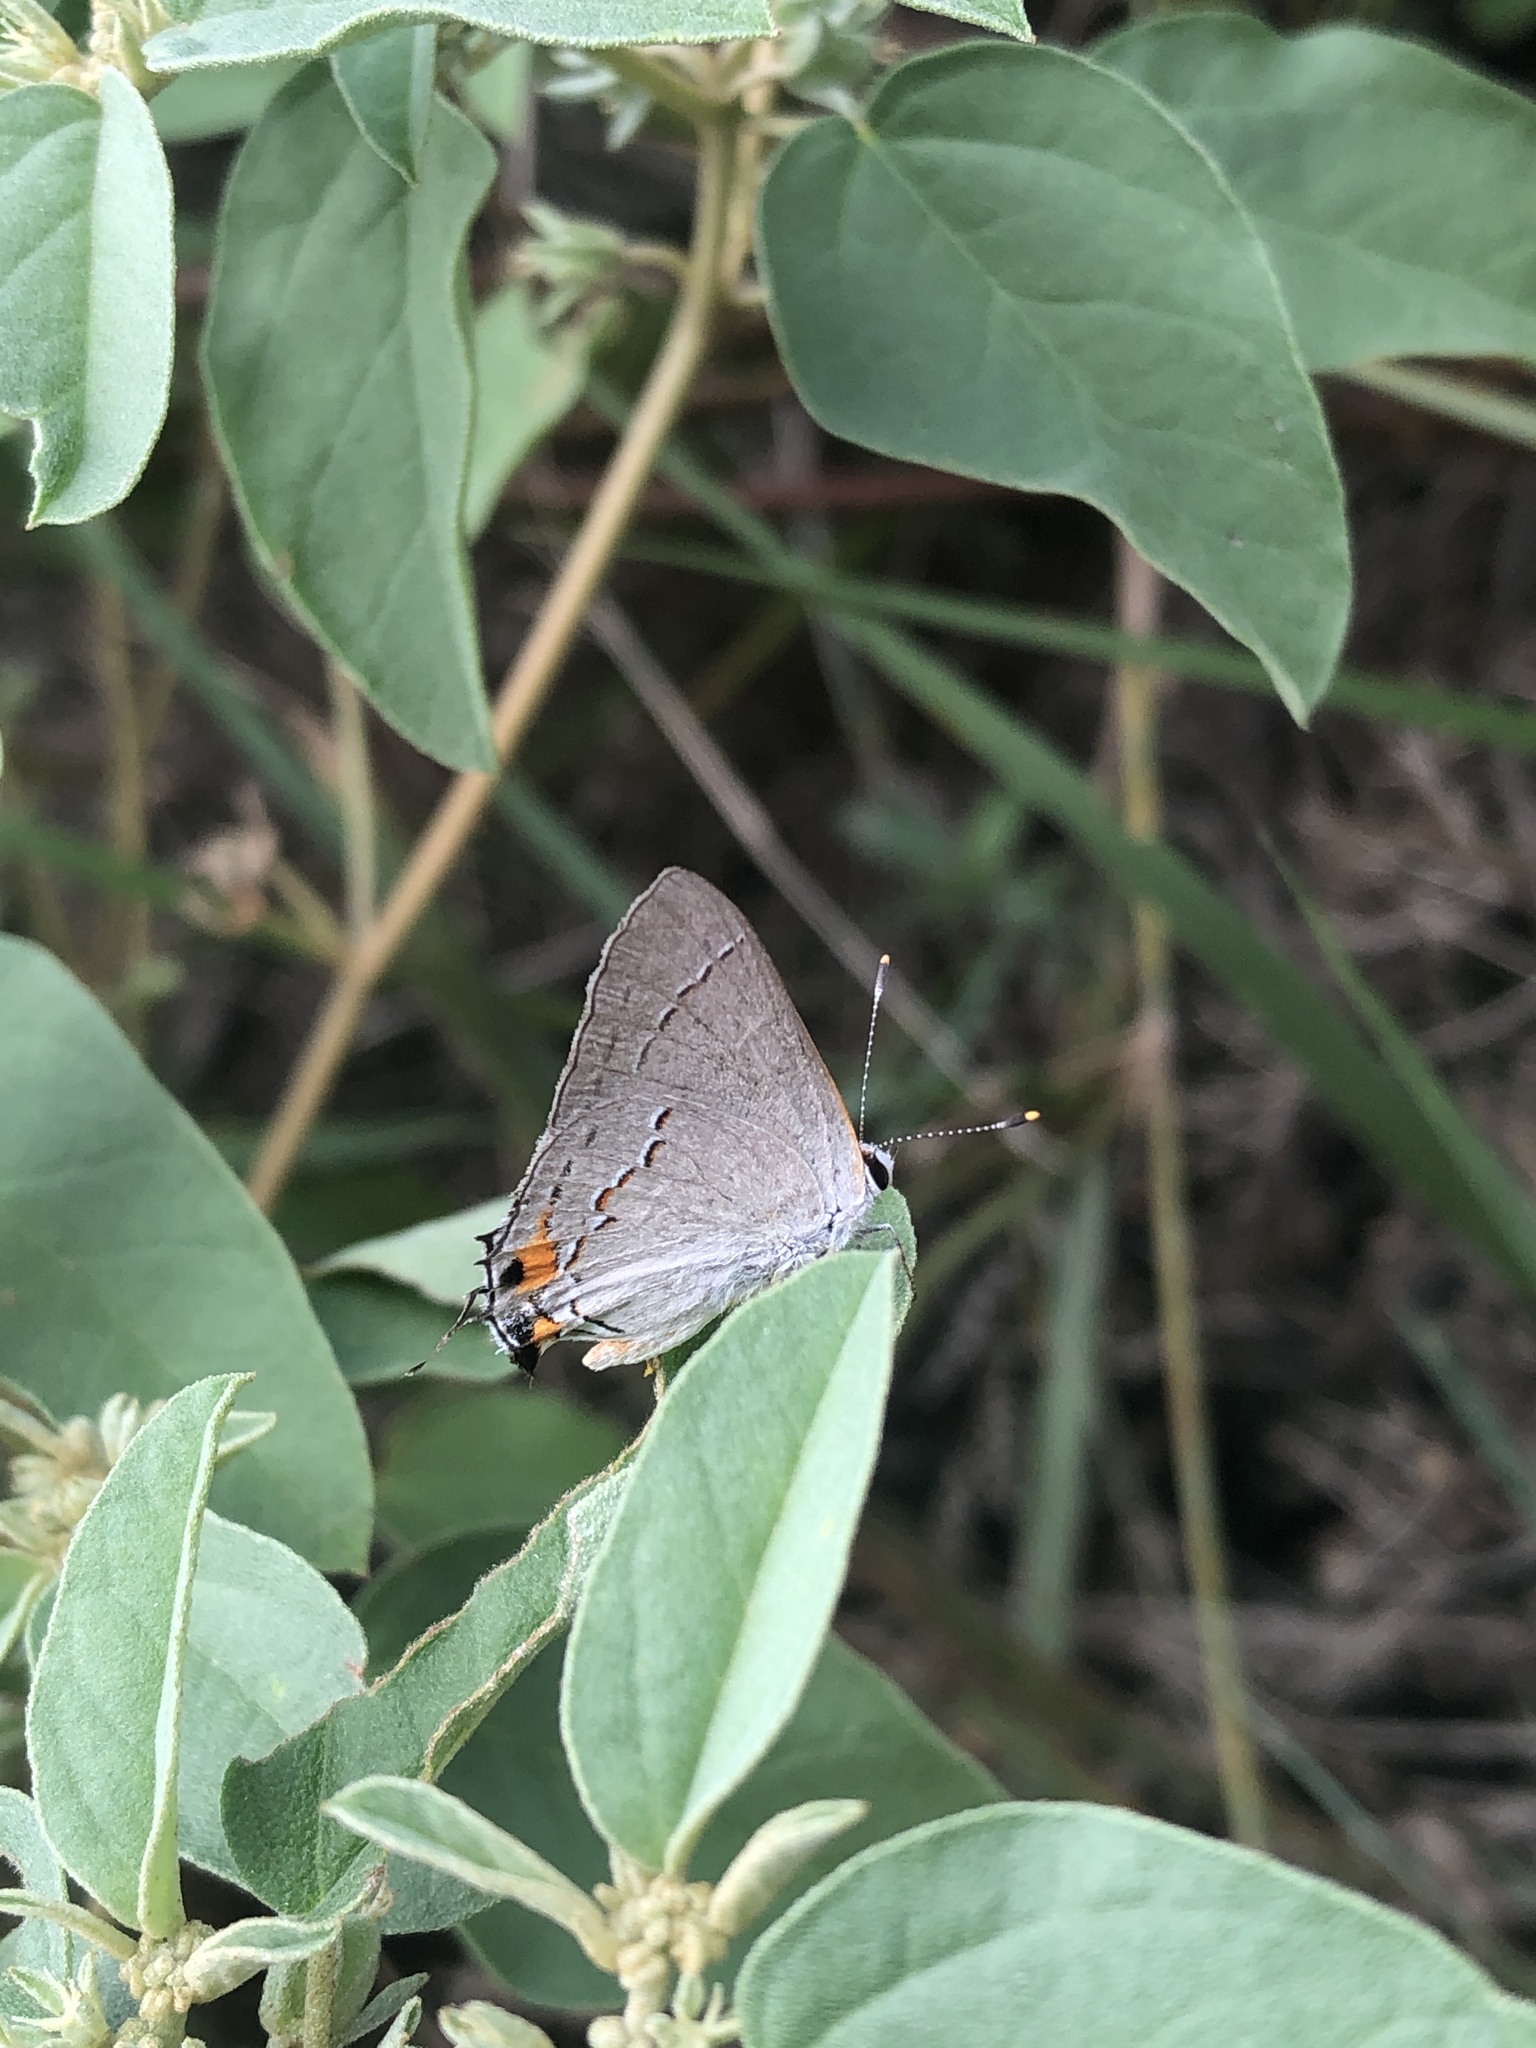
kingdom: Animalia
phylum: Arthropoda
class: Insecta
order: Lepidoptera
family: Lycaenidae
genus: Strymon
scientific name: Strymon melinus
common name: Gray hairstreak
